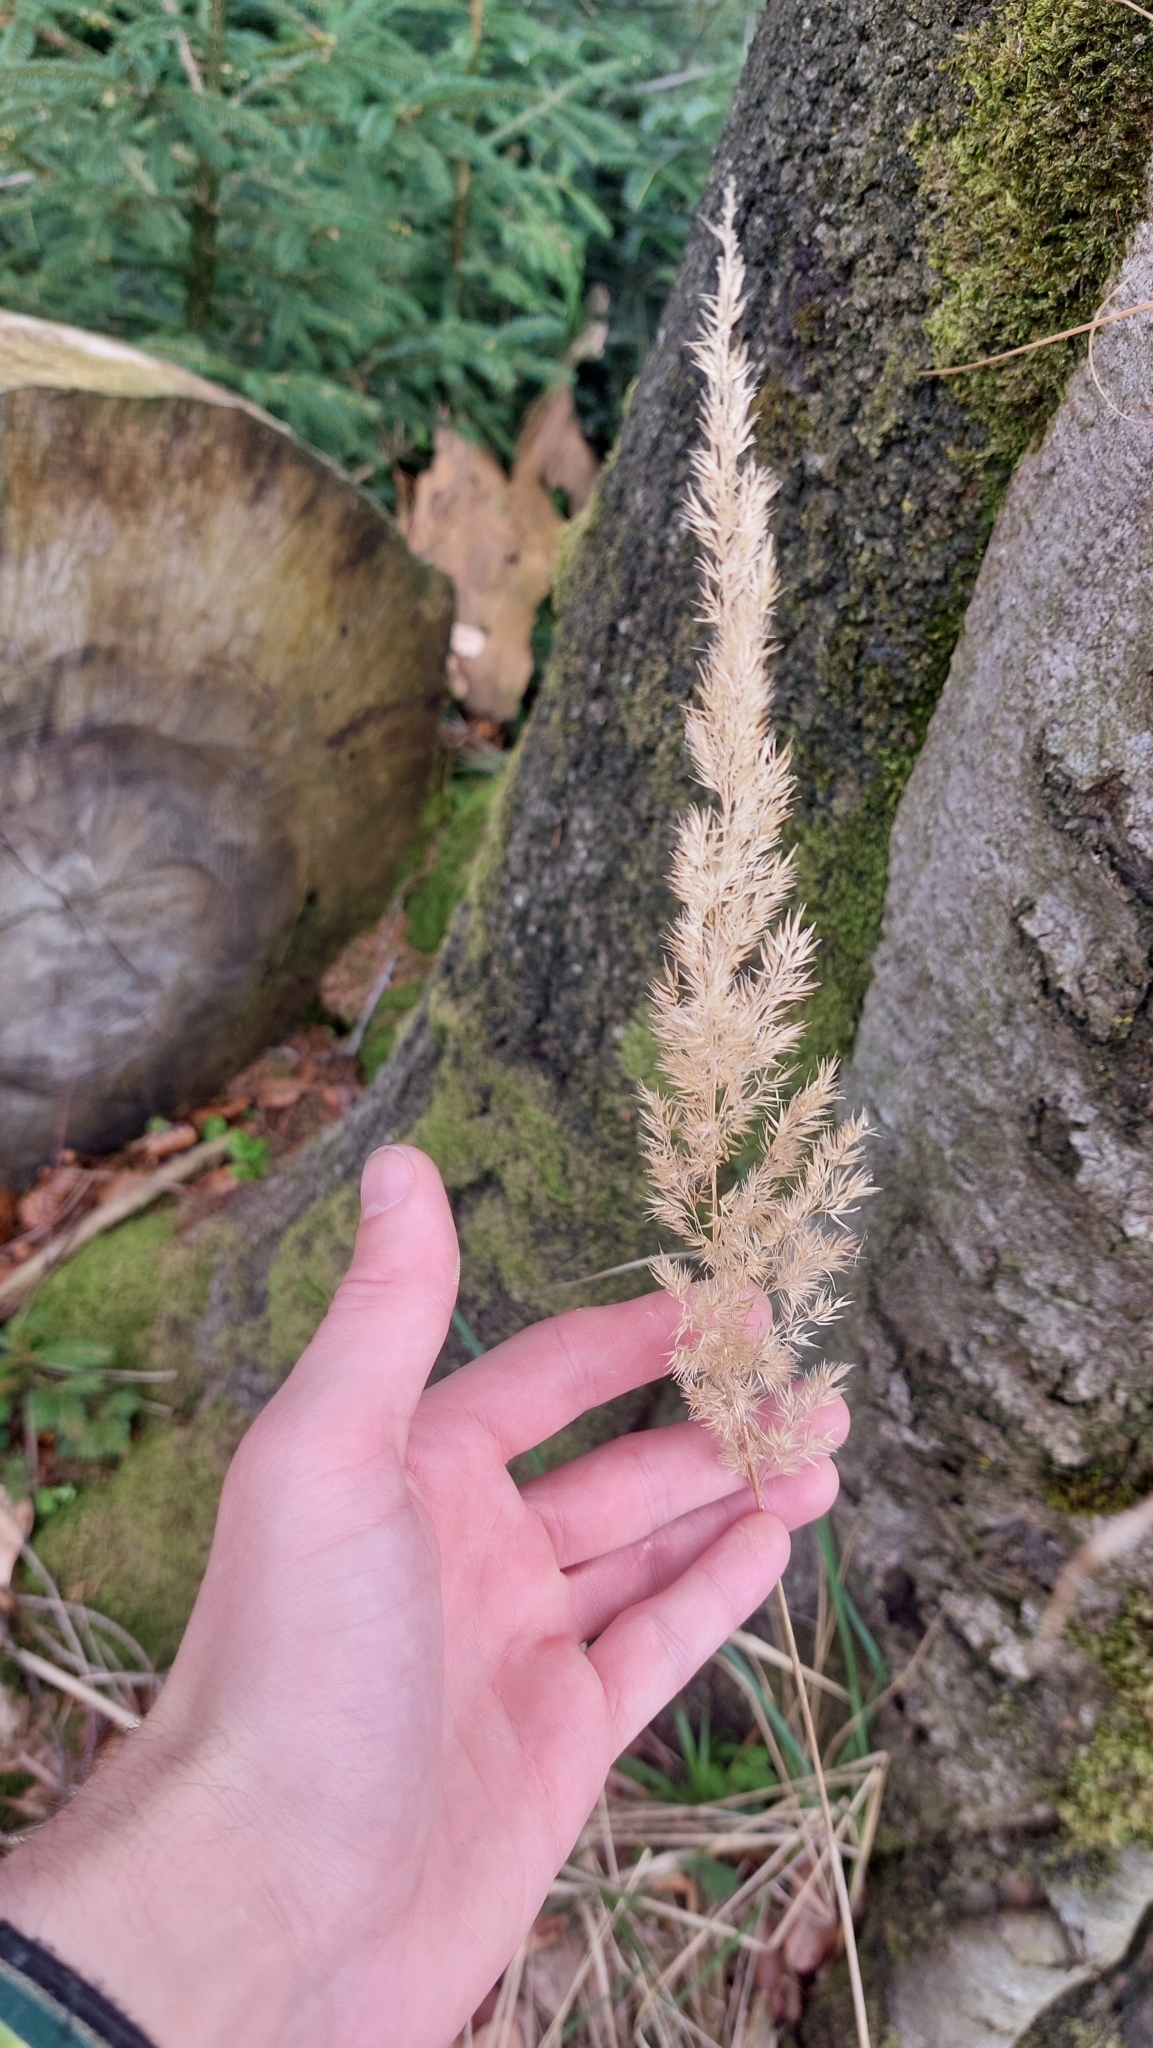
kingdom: Plantae
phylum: Tracheophyta
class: Liliopsida
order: Poales
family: Poaceae
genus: Calamagrostis
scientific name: Calamagrostis epigejos
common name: Wood small-reed
